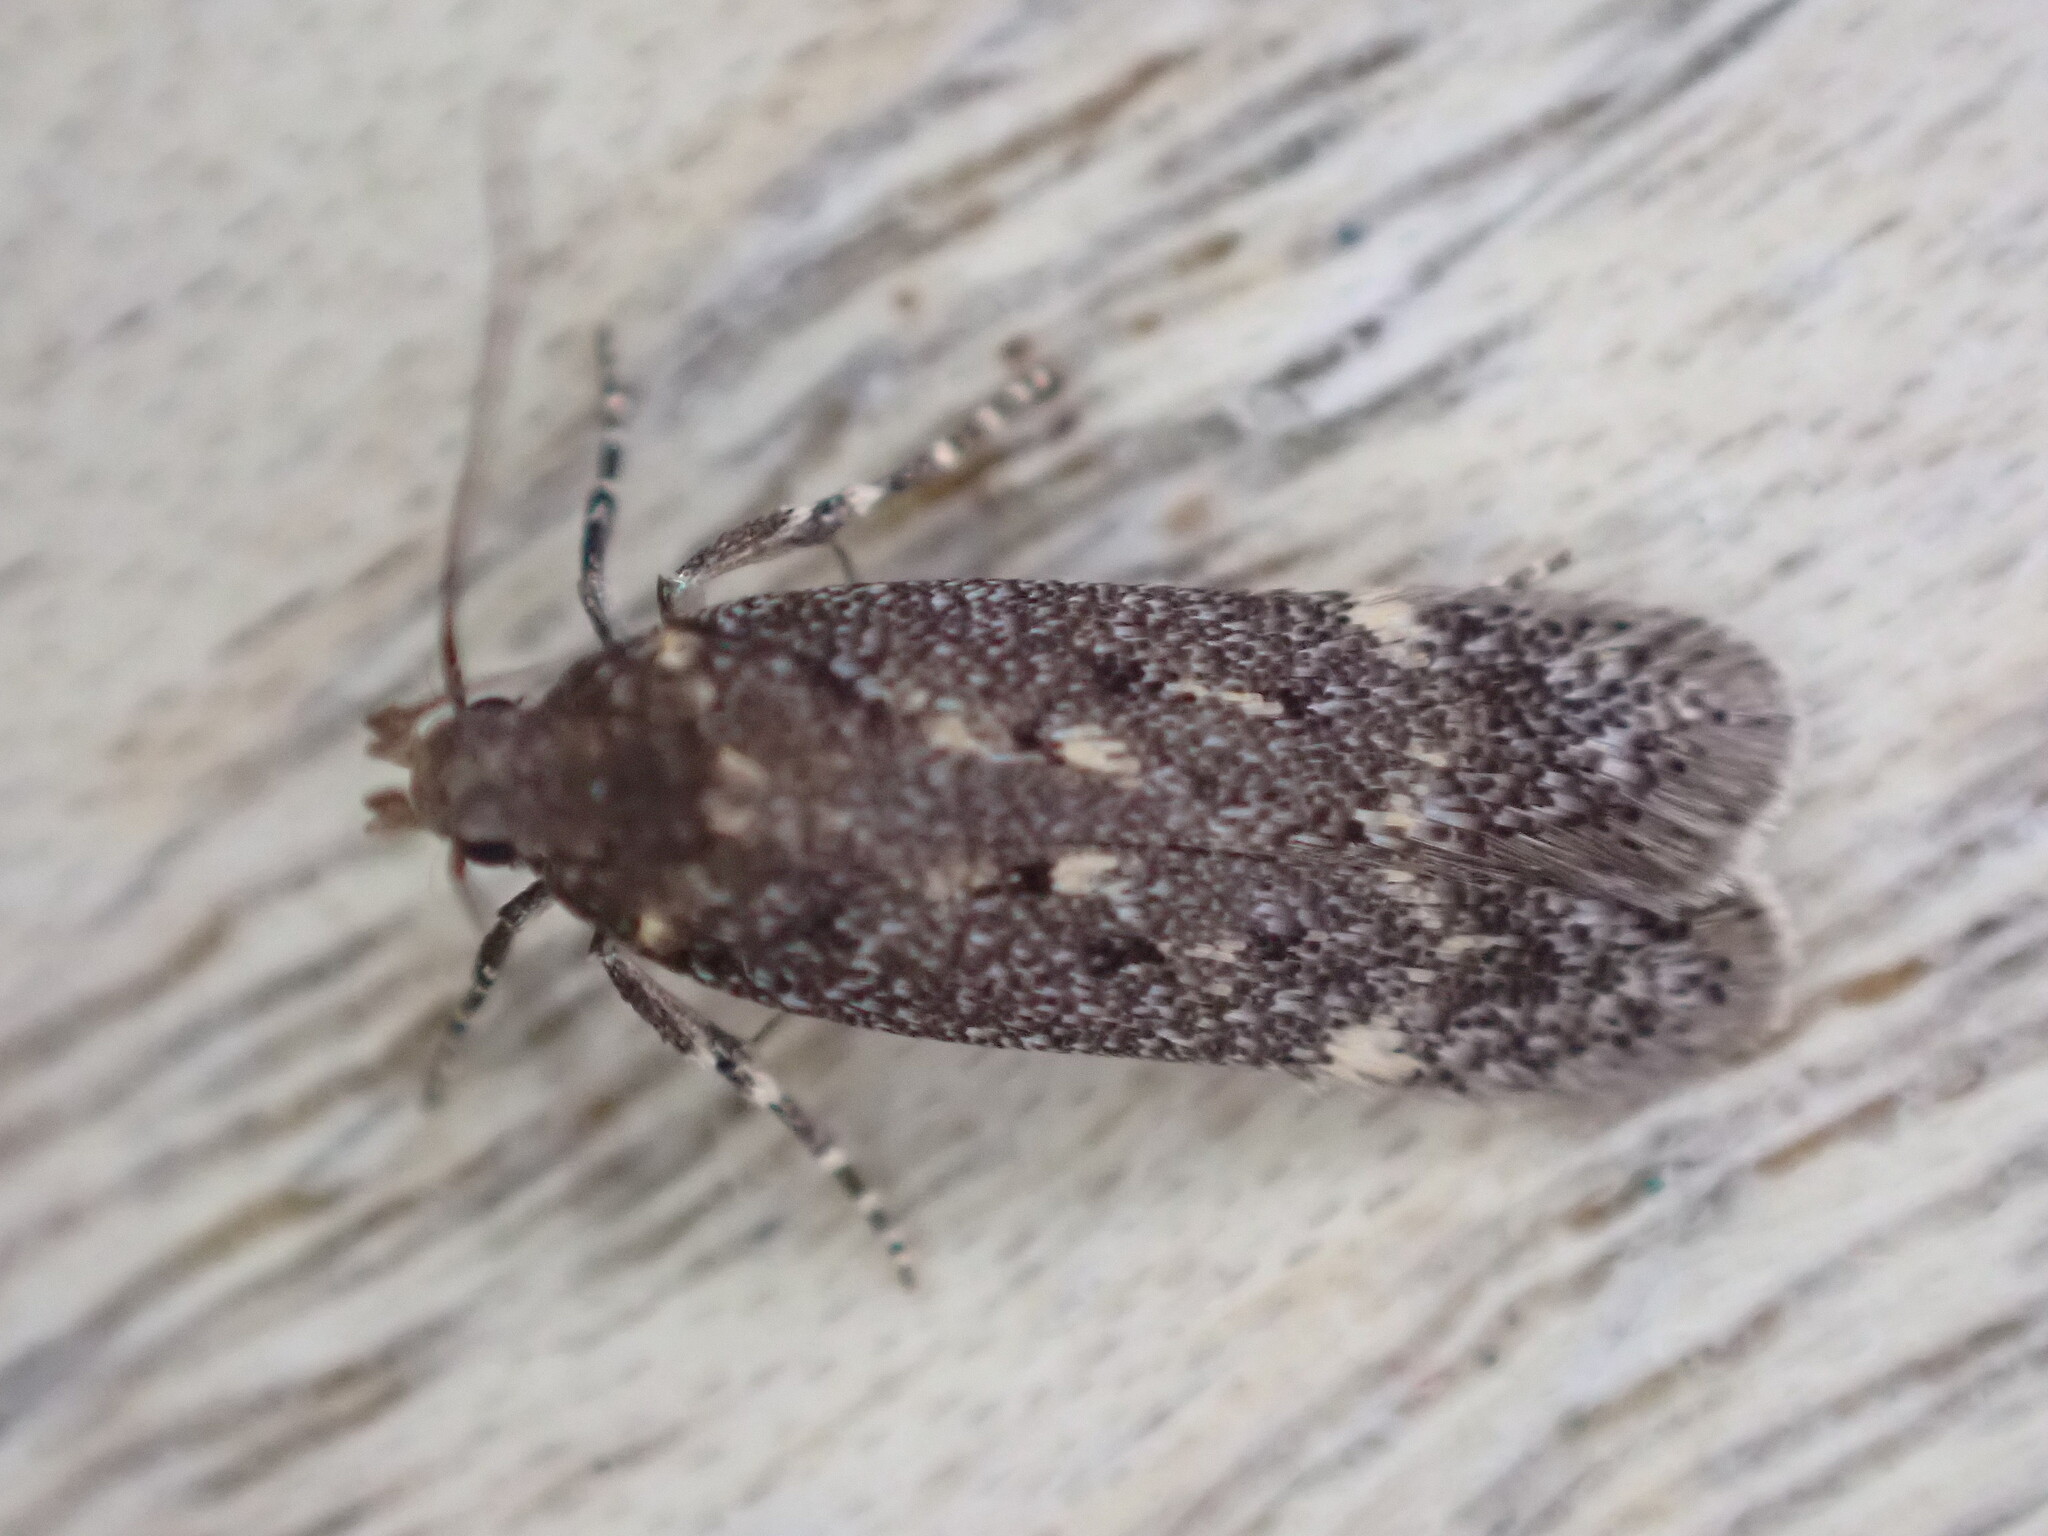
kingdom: Animalia
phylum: Arthropoda
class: Insecta
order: Lepidoptera
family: Gelechiidae
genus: Bryotropha
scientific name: Bryotropha affinis
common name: Dark groundling
